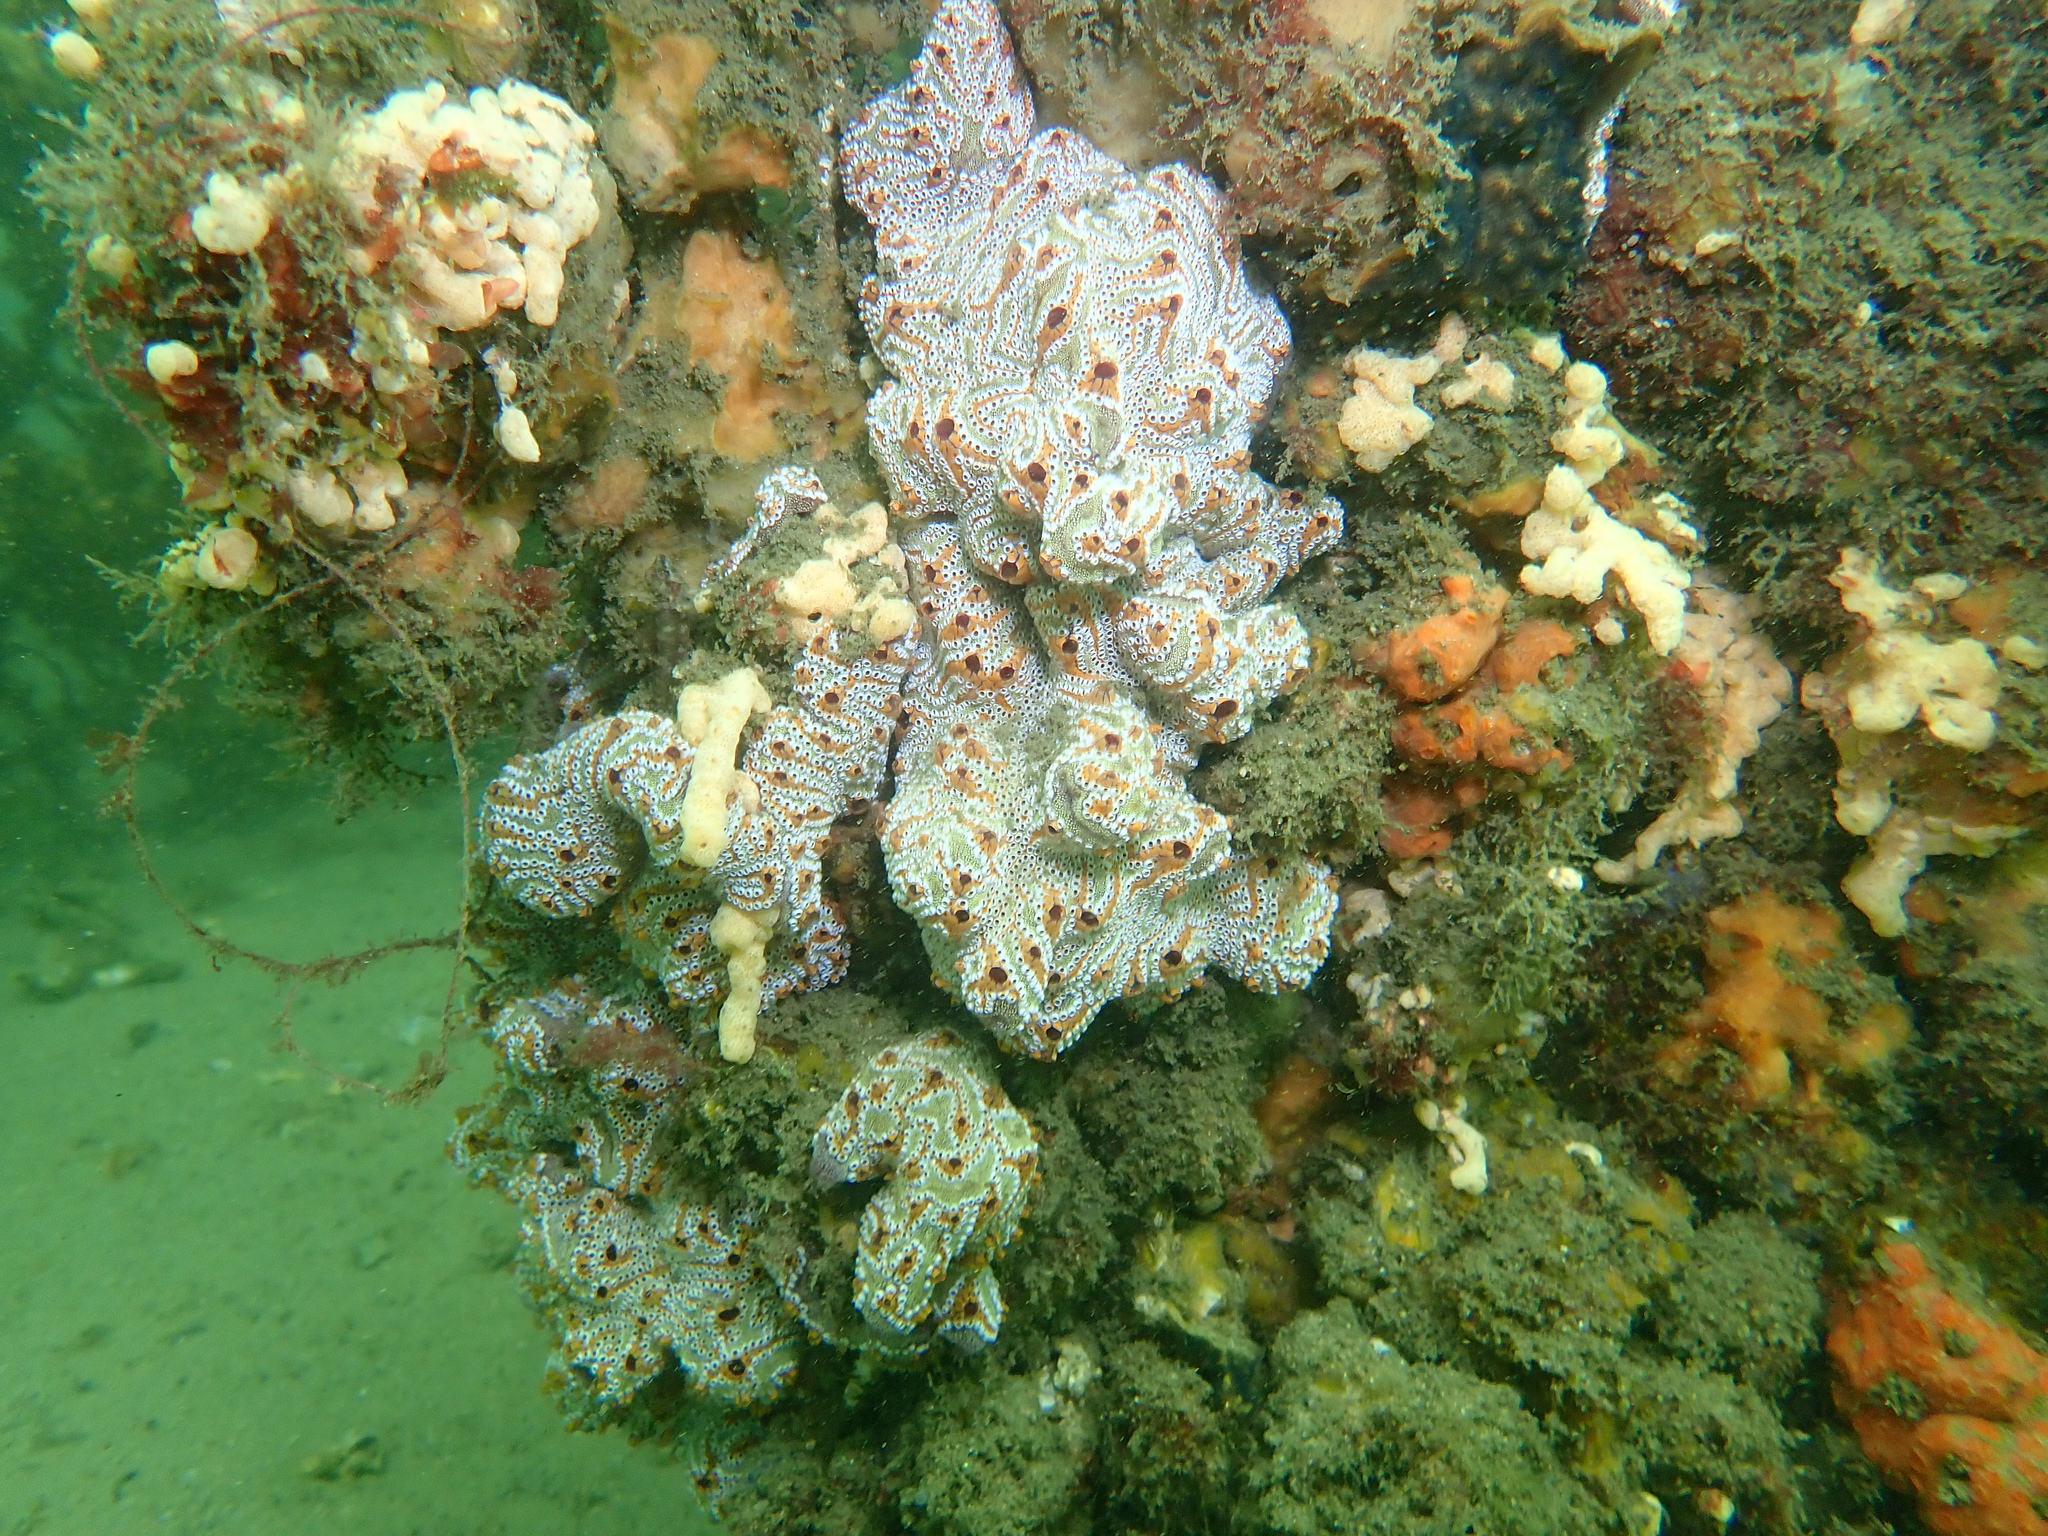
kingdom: Animalia
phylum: Chordata
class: Ascidiacea
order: Stolidobranchia
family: Styelidae
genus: Botrylloides
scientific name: Botrylloides leachii
